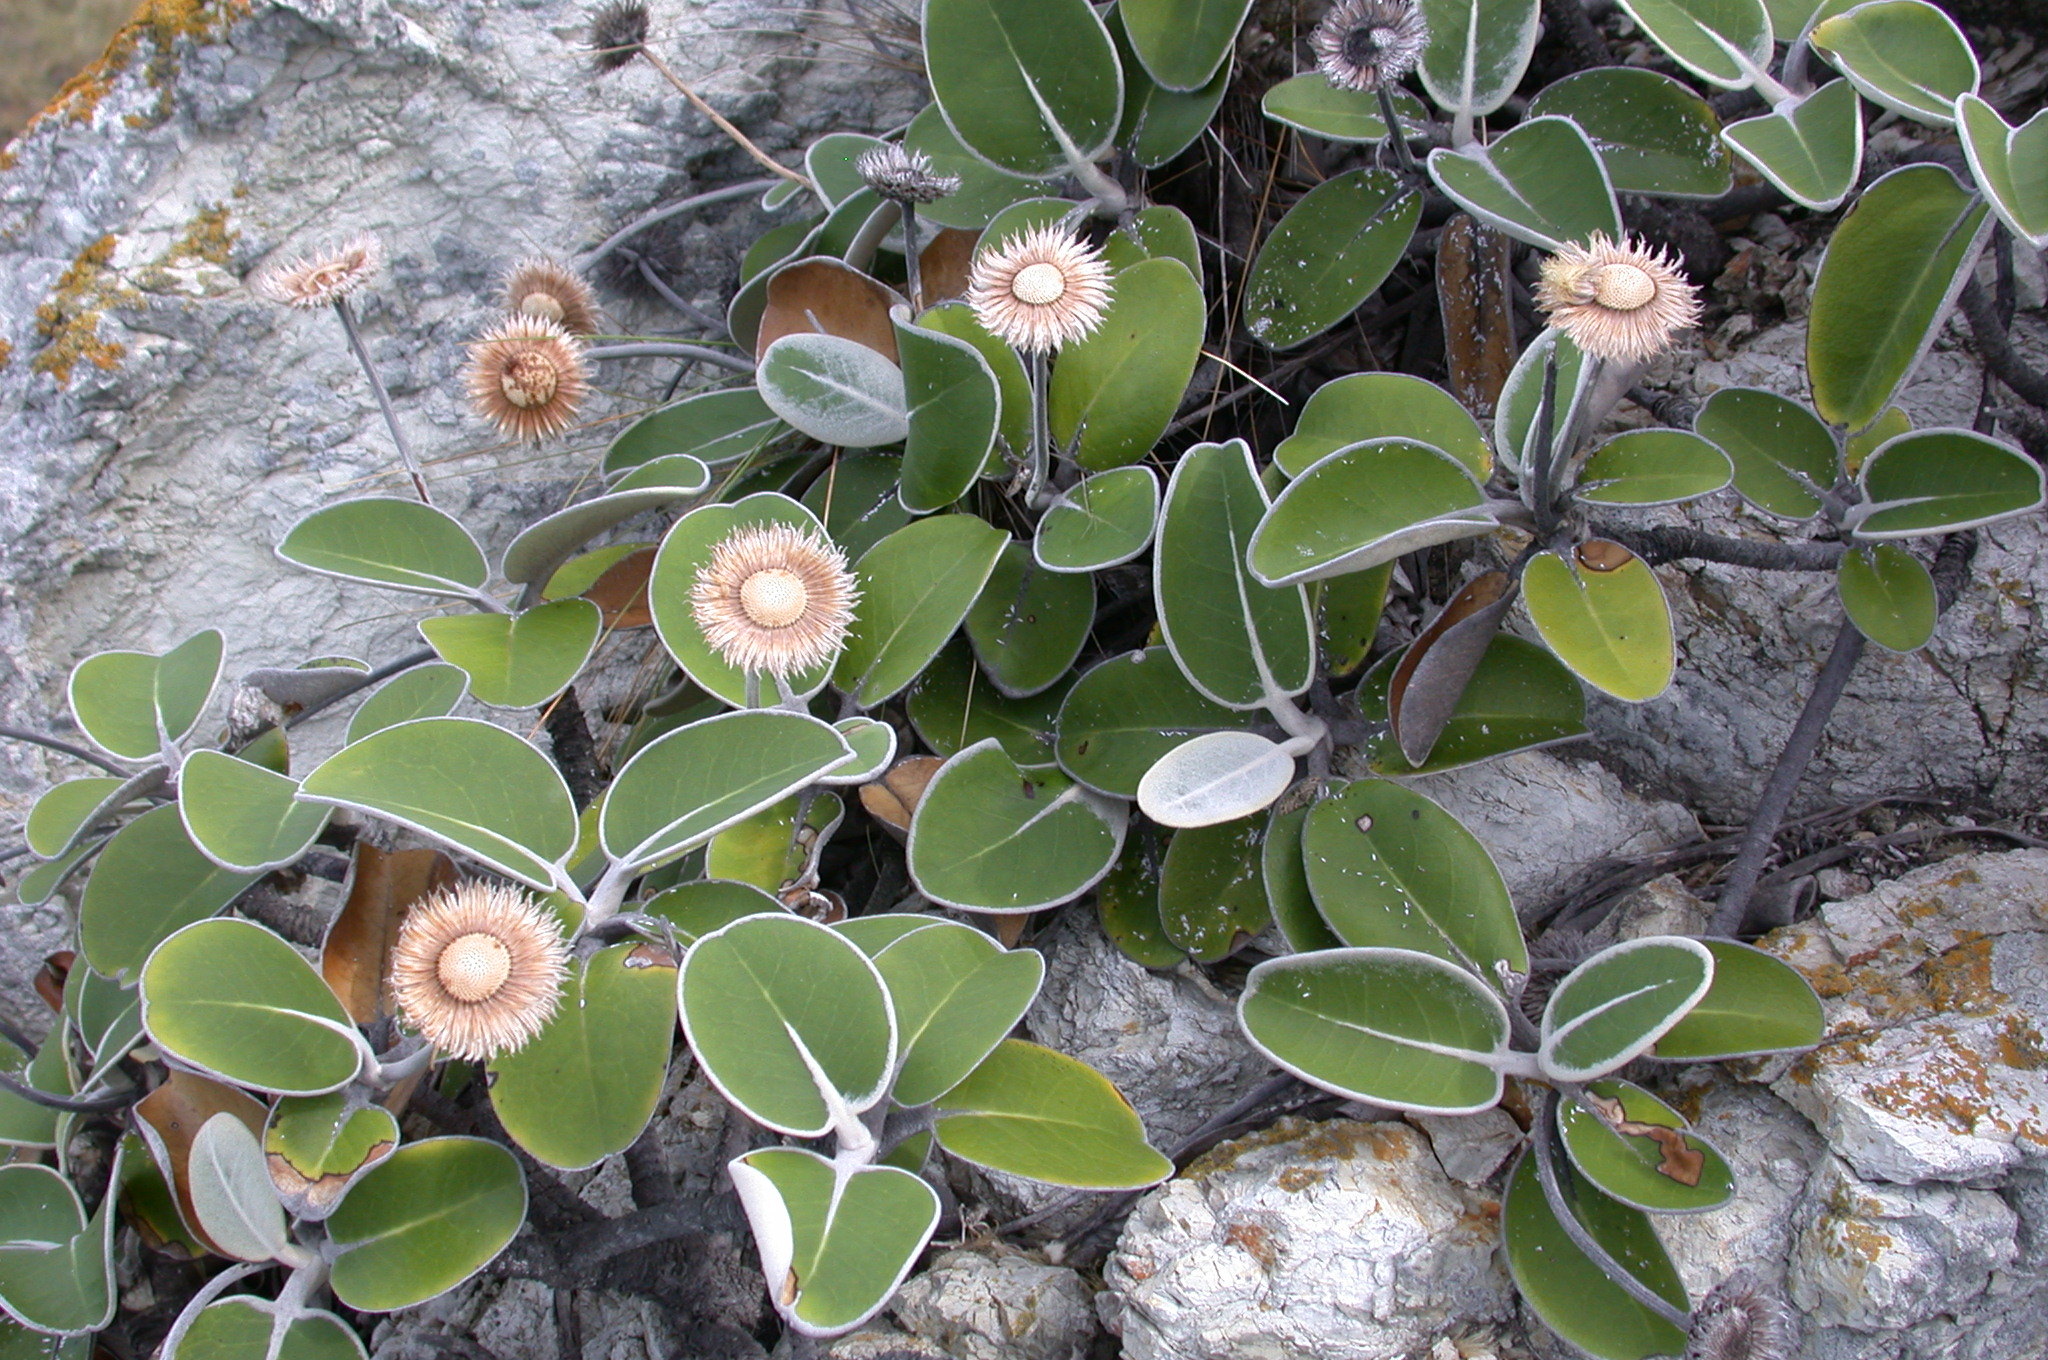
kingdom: Plantae
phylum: Tracheophyta
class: Magnoliopsida
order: Asterales
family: Asteraceae
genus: Pachystegia
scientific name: Pachystegia insignis
